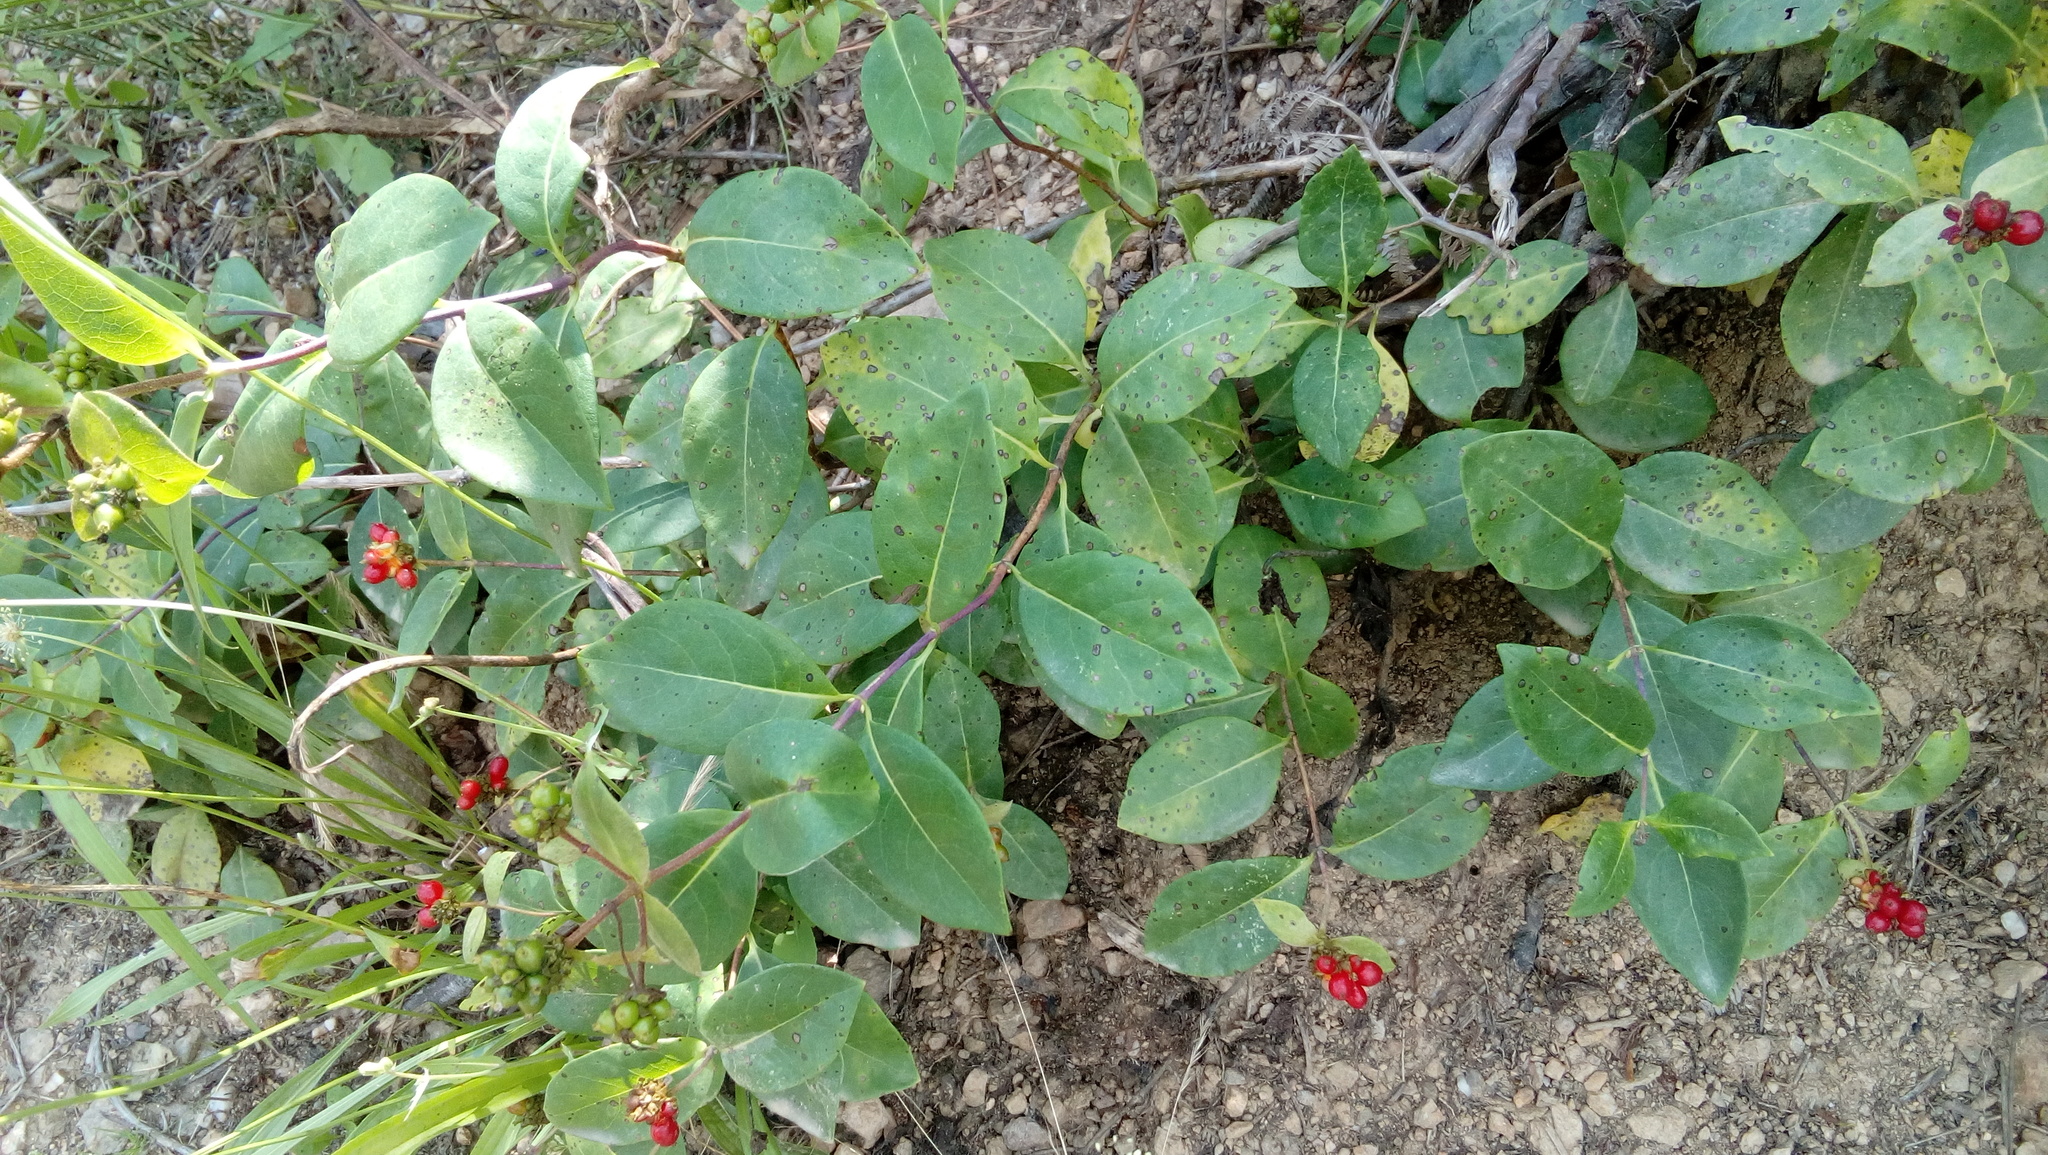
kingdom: Plantae
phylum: Tracheophyta
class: Magnoliopsida
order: Dipsacales
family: Caprifoliaceae
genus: Lonicera
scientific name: Lonicera periclymenum
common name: European honeysuckle
